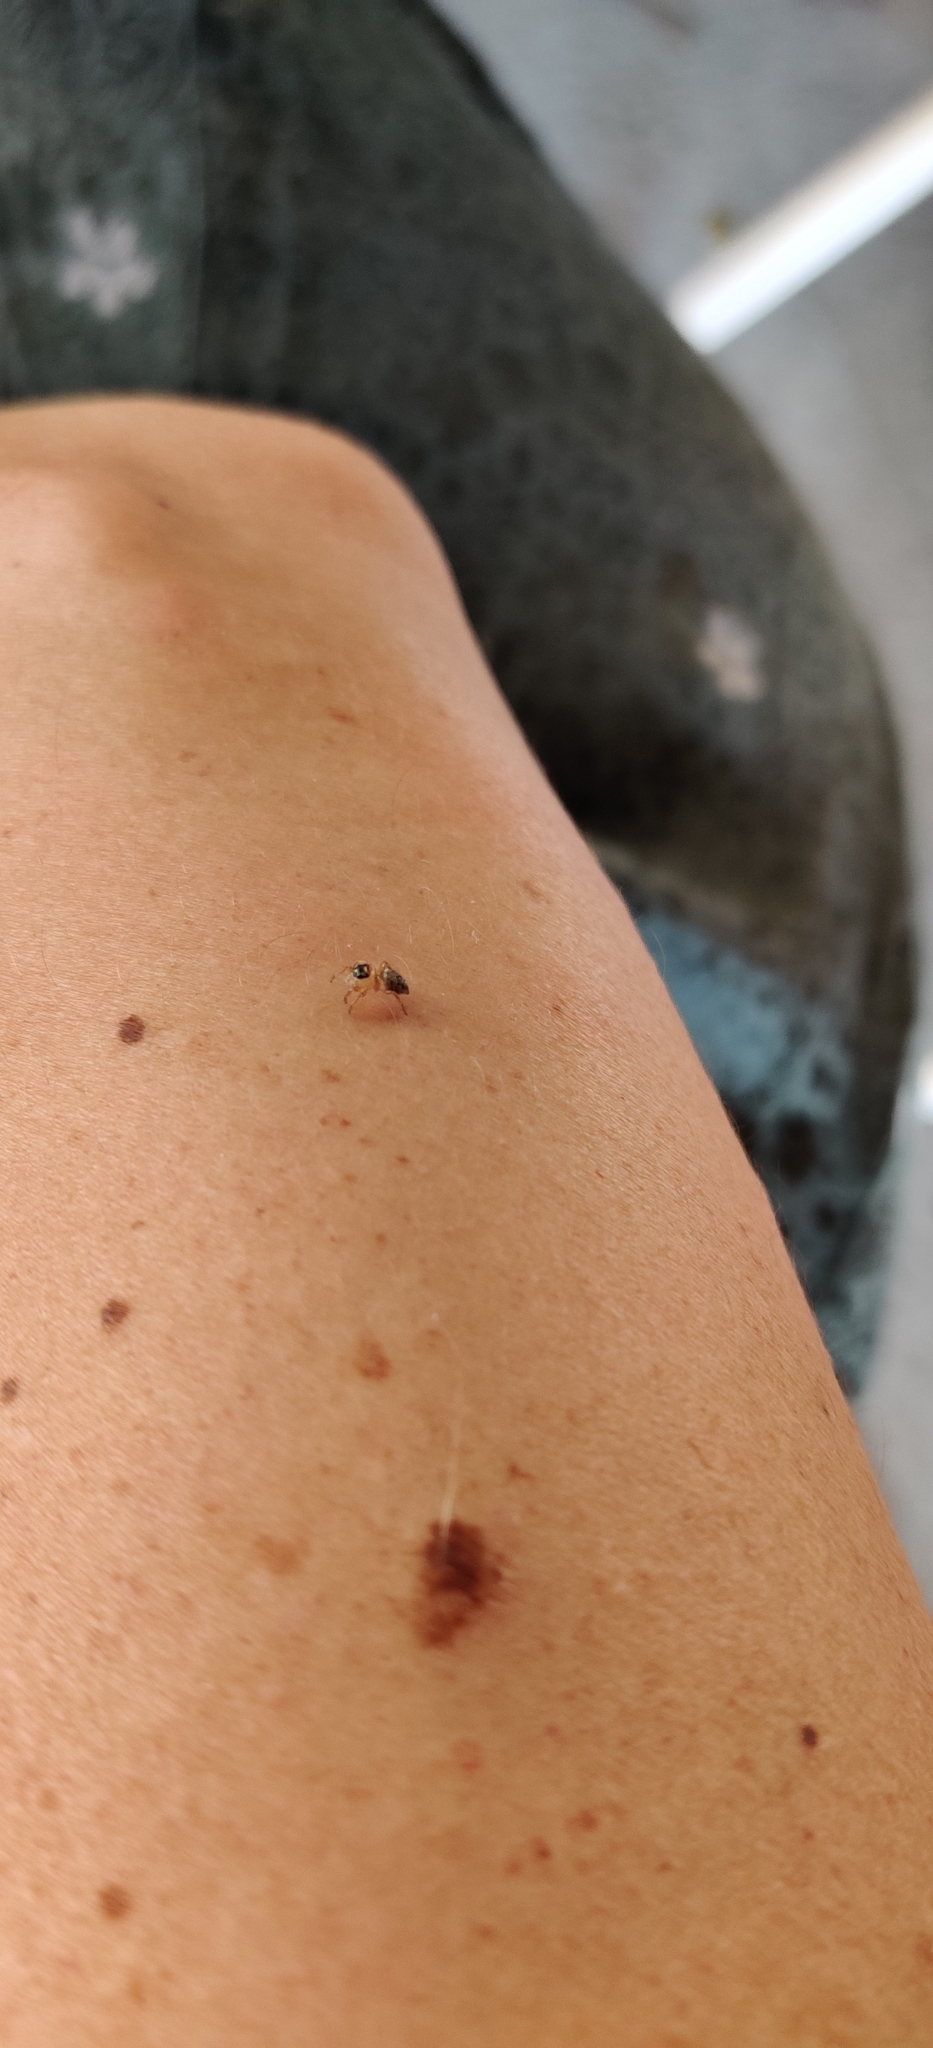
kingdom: Animalia
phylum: Arthropoda
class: Arachnida
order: Araneae
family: Salticidae
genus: Evarcha
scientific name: Evarcha jucunda
